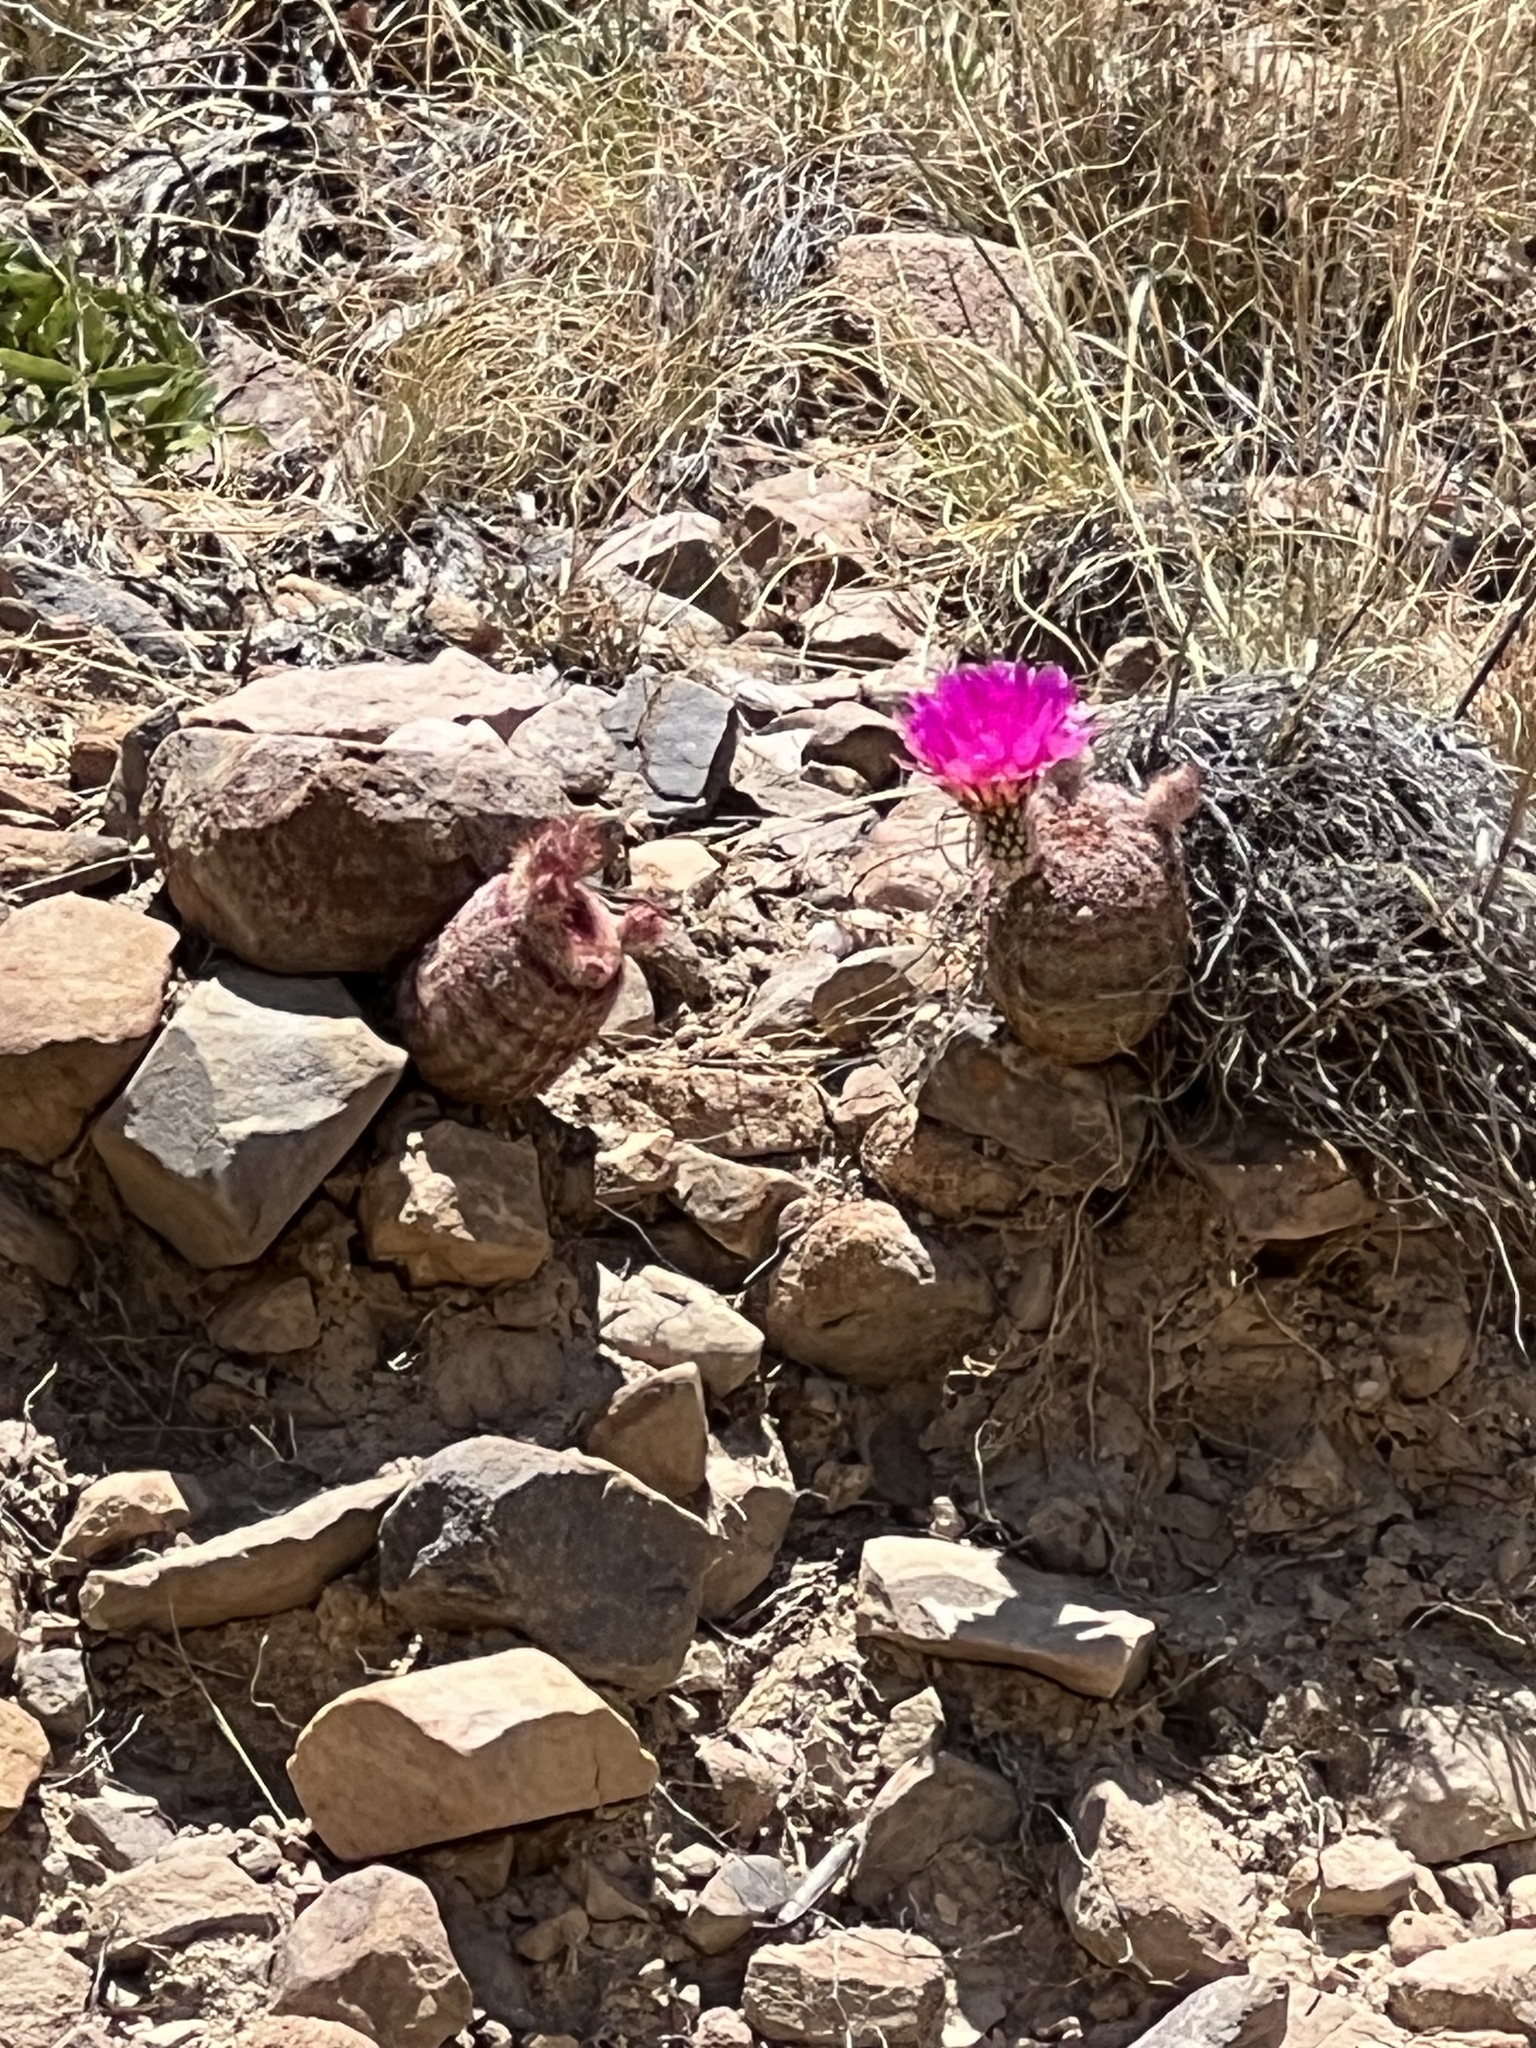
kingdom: Plantae
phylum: Tracheophyta
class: Magnoliopsida
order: Caryophyllales
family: Cactaceae
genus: Echinocereus
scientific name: Echinocereus rigidissimus
